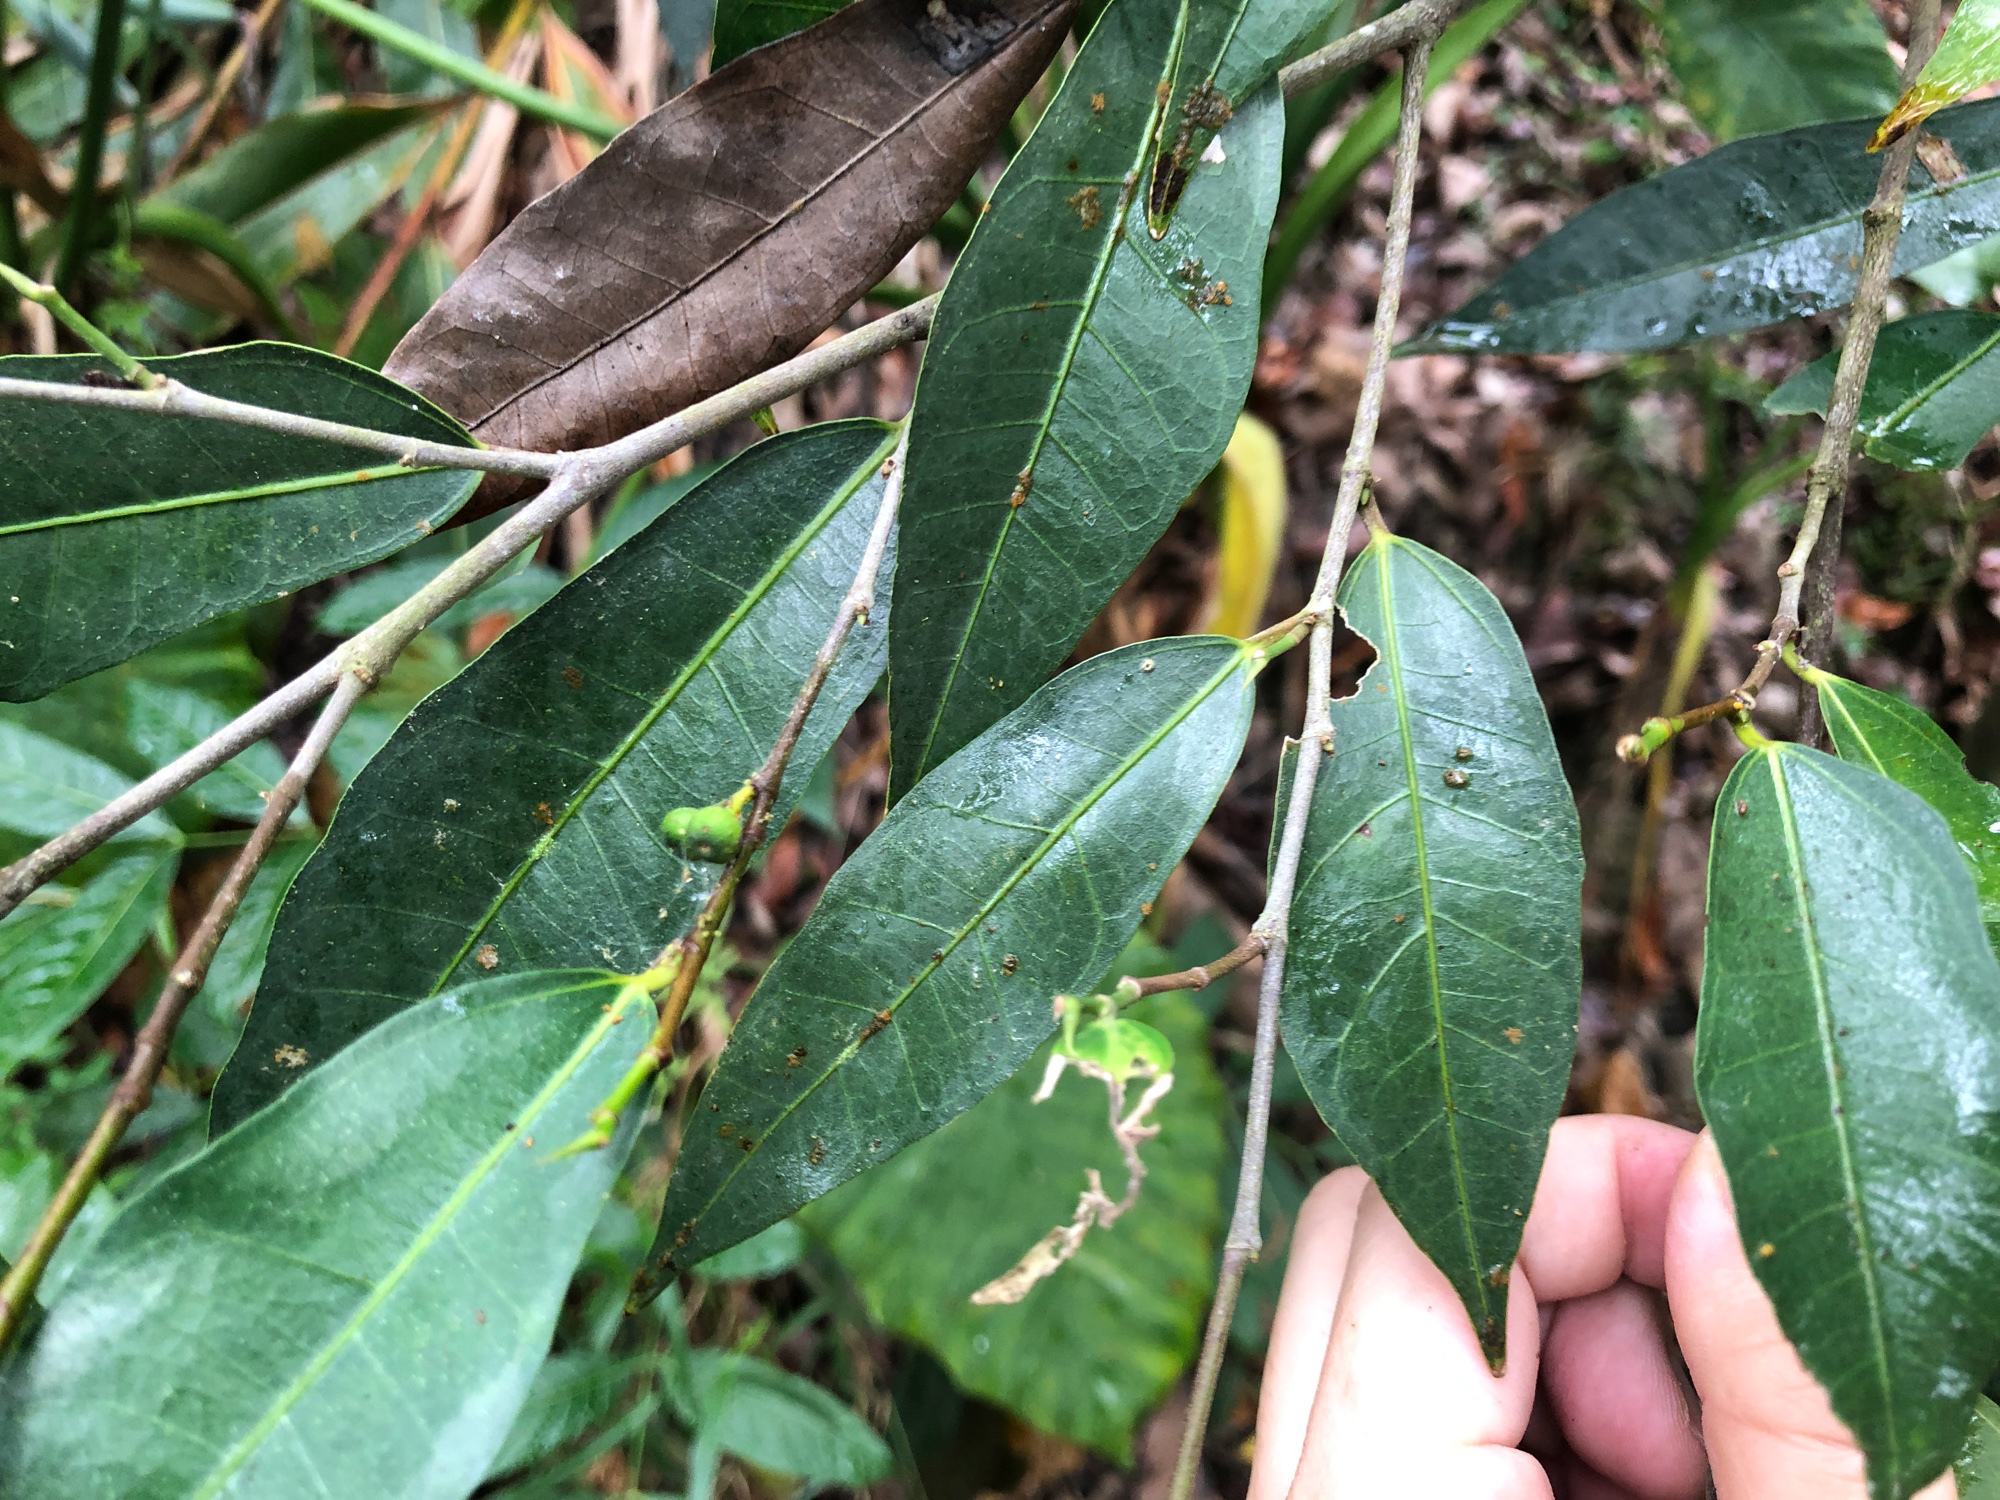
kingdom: Plantae
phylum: Tracheophyta
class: Magnoliopsida
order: Rosales
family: Moraceae
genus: Ficus
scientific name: Ficus ampelos
